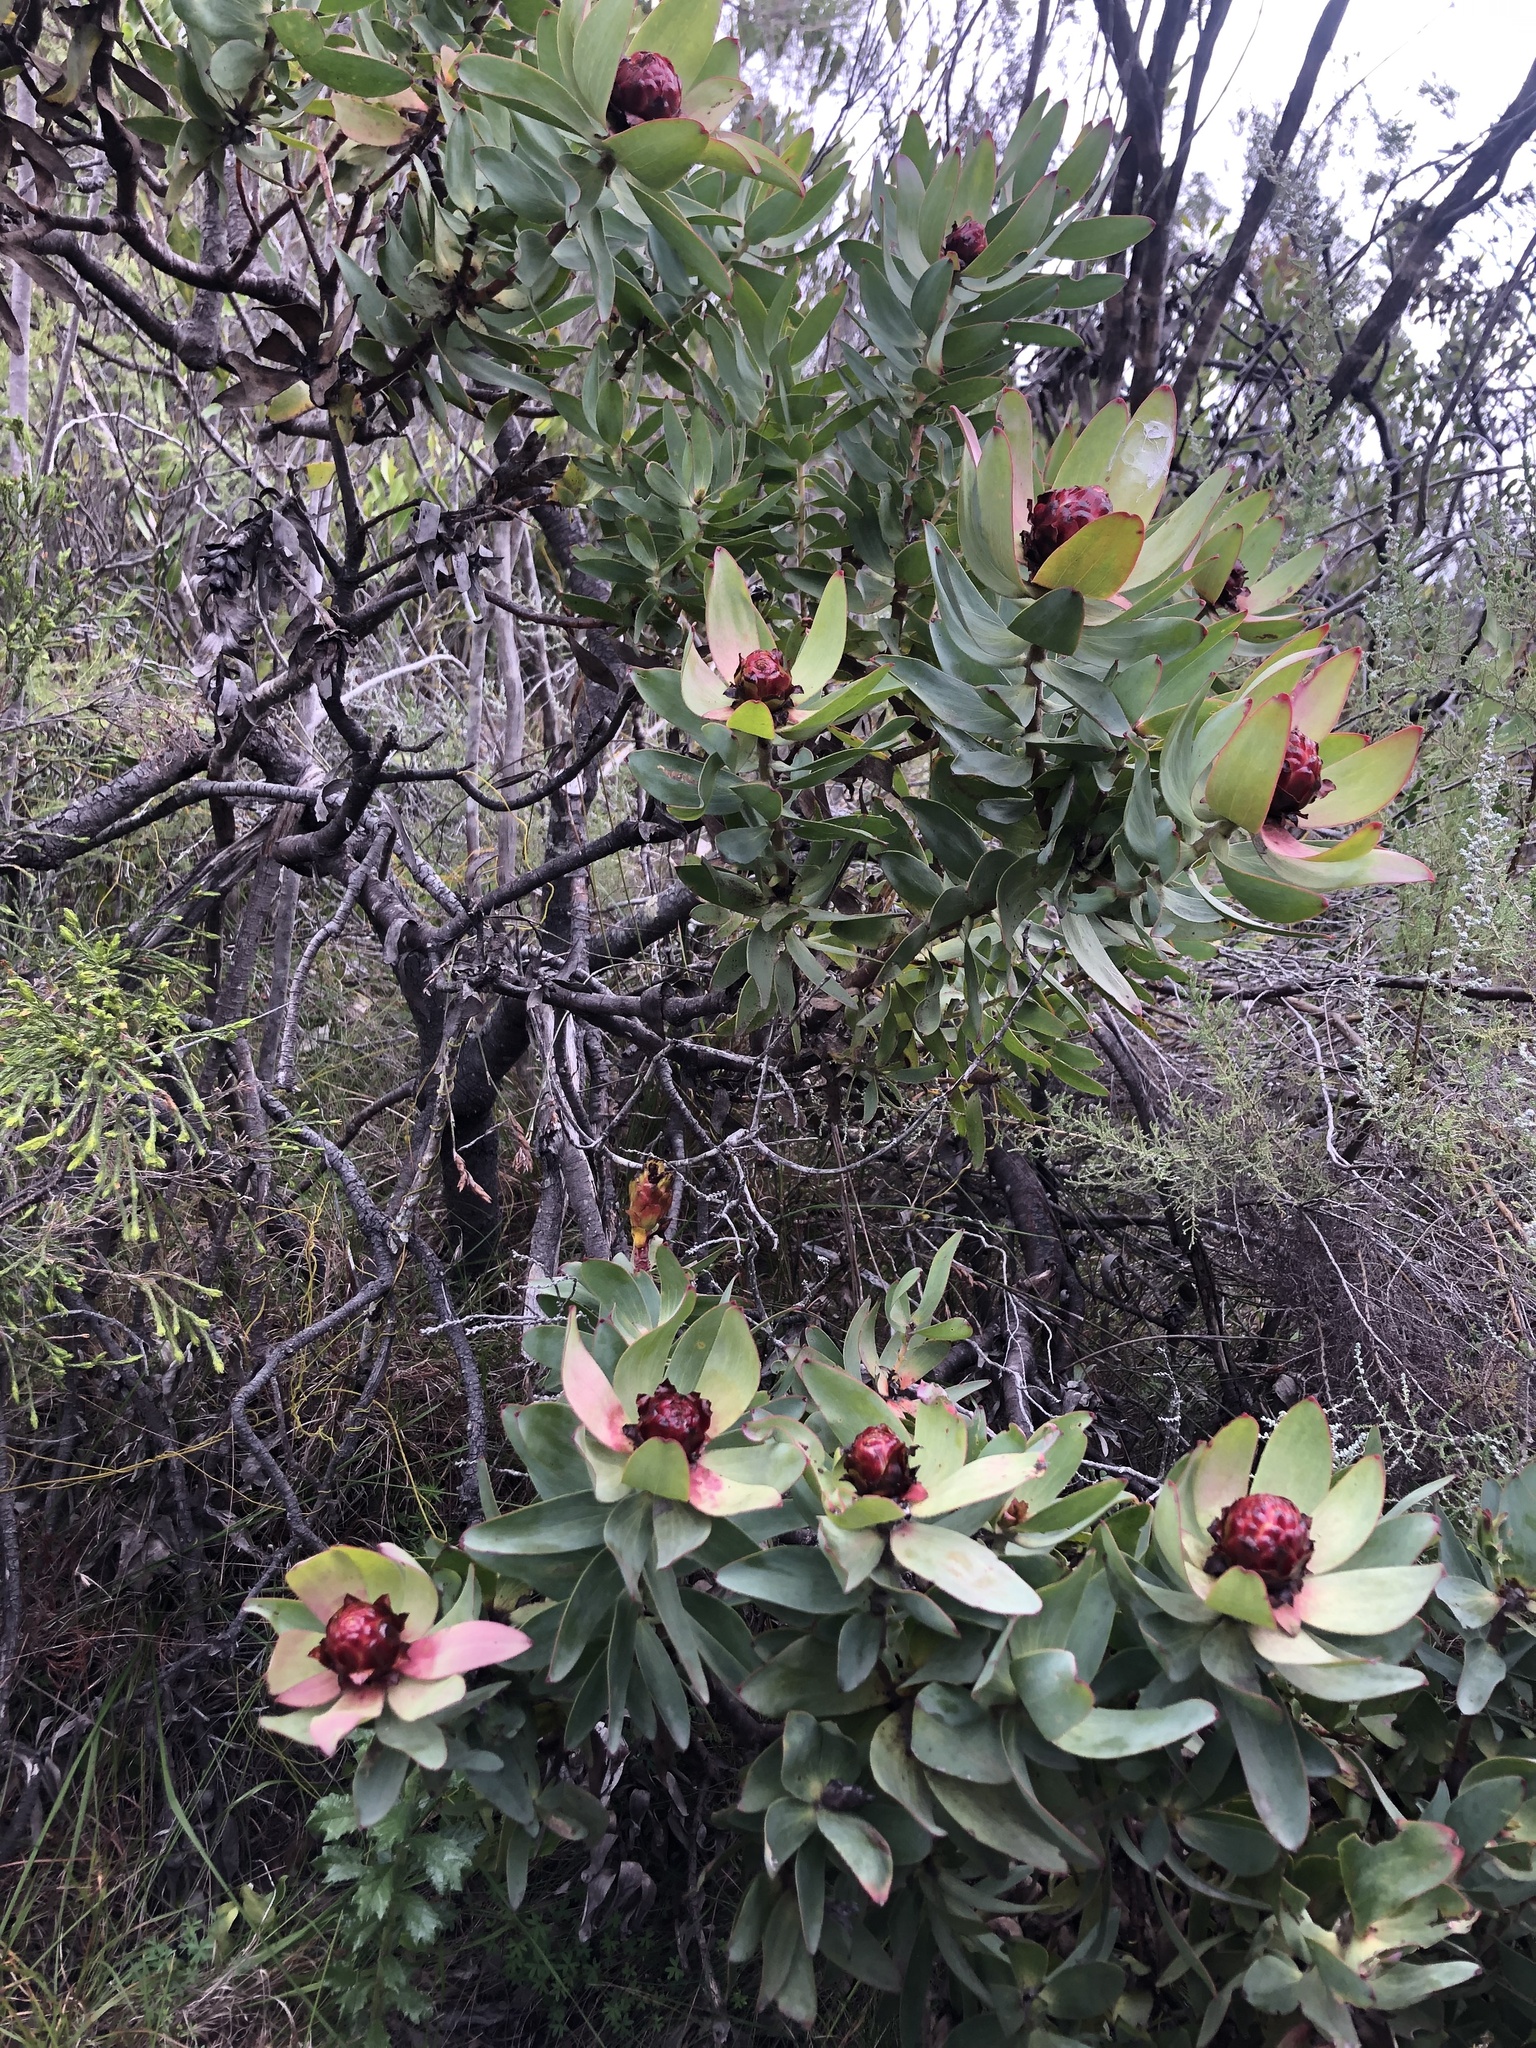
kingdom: Plantae
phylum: Tracheophyta
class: Magnoliopsida
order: Proteales
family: Proteaceae
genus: Leucadendron
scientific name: Leucadendron tinctum
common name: Spicy conebush
